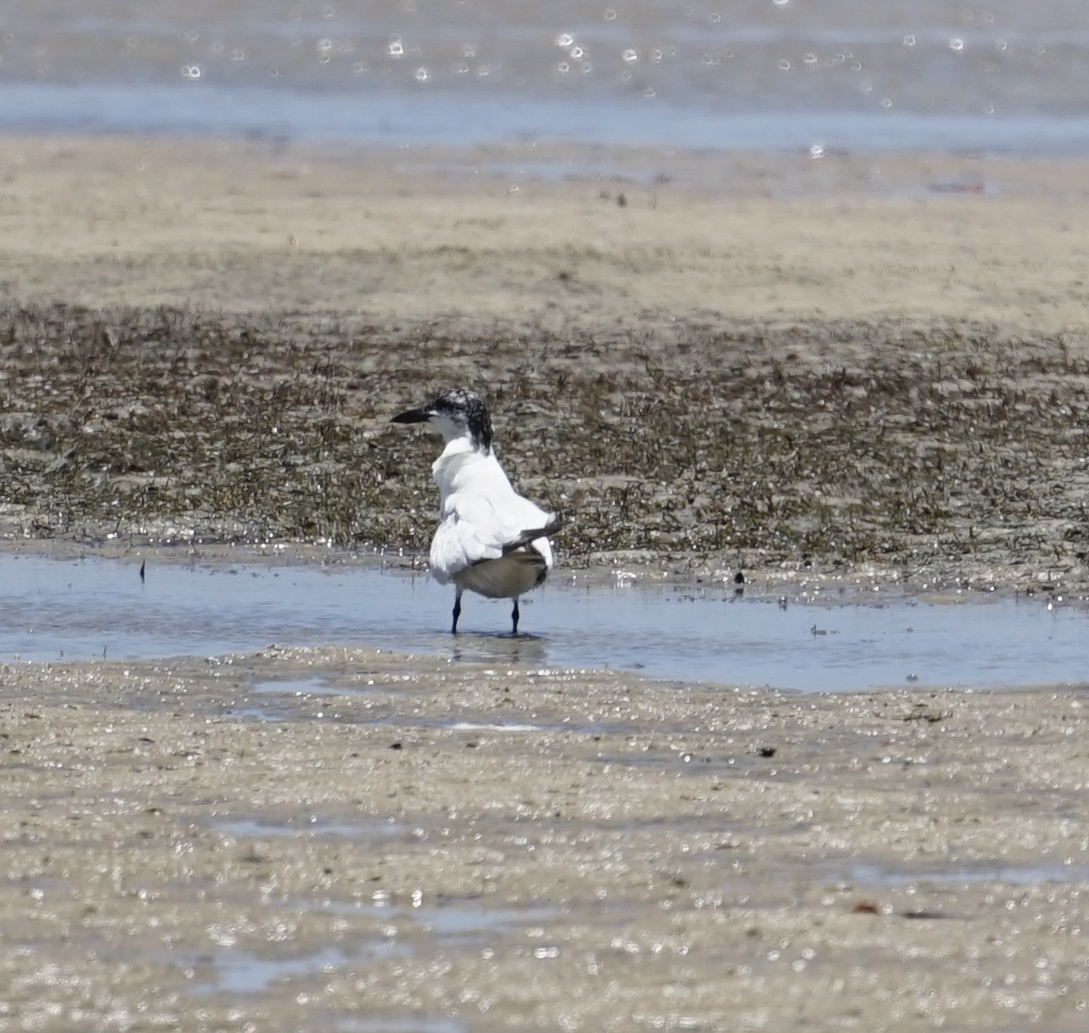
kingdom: Animalia
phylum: Chordata
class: Aves
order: Charadriiformes
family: Laridae
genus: Gelochelidon
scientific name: Gelochelidon macrotarsa
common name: Australian tern
